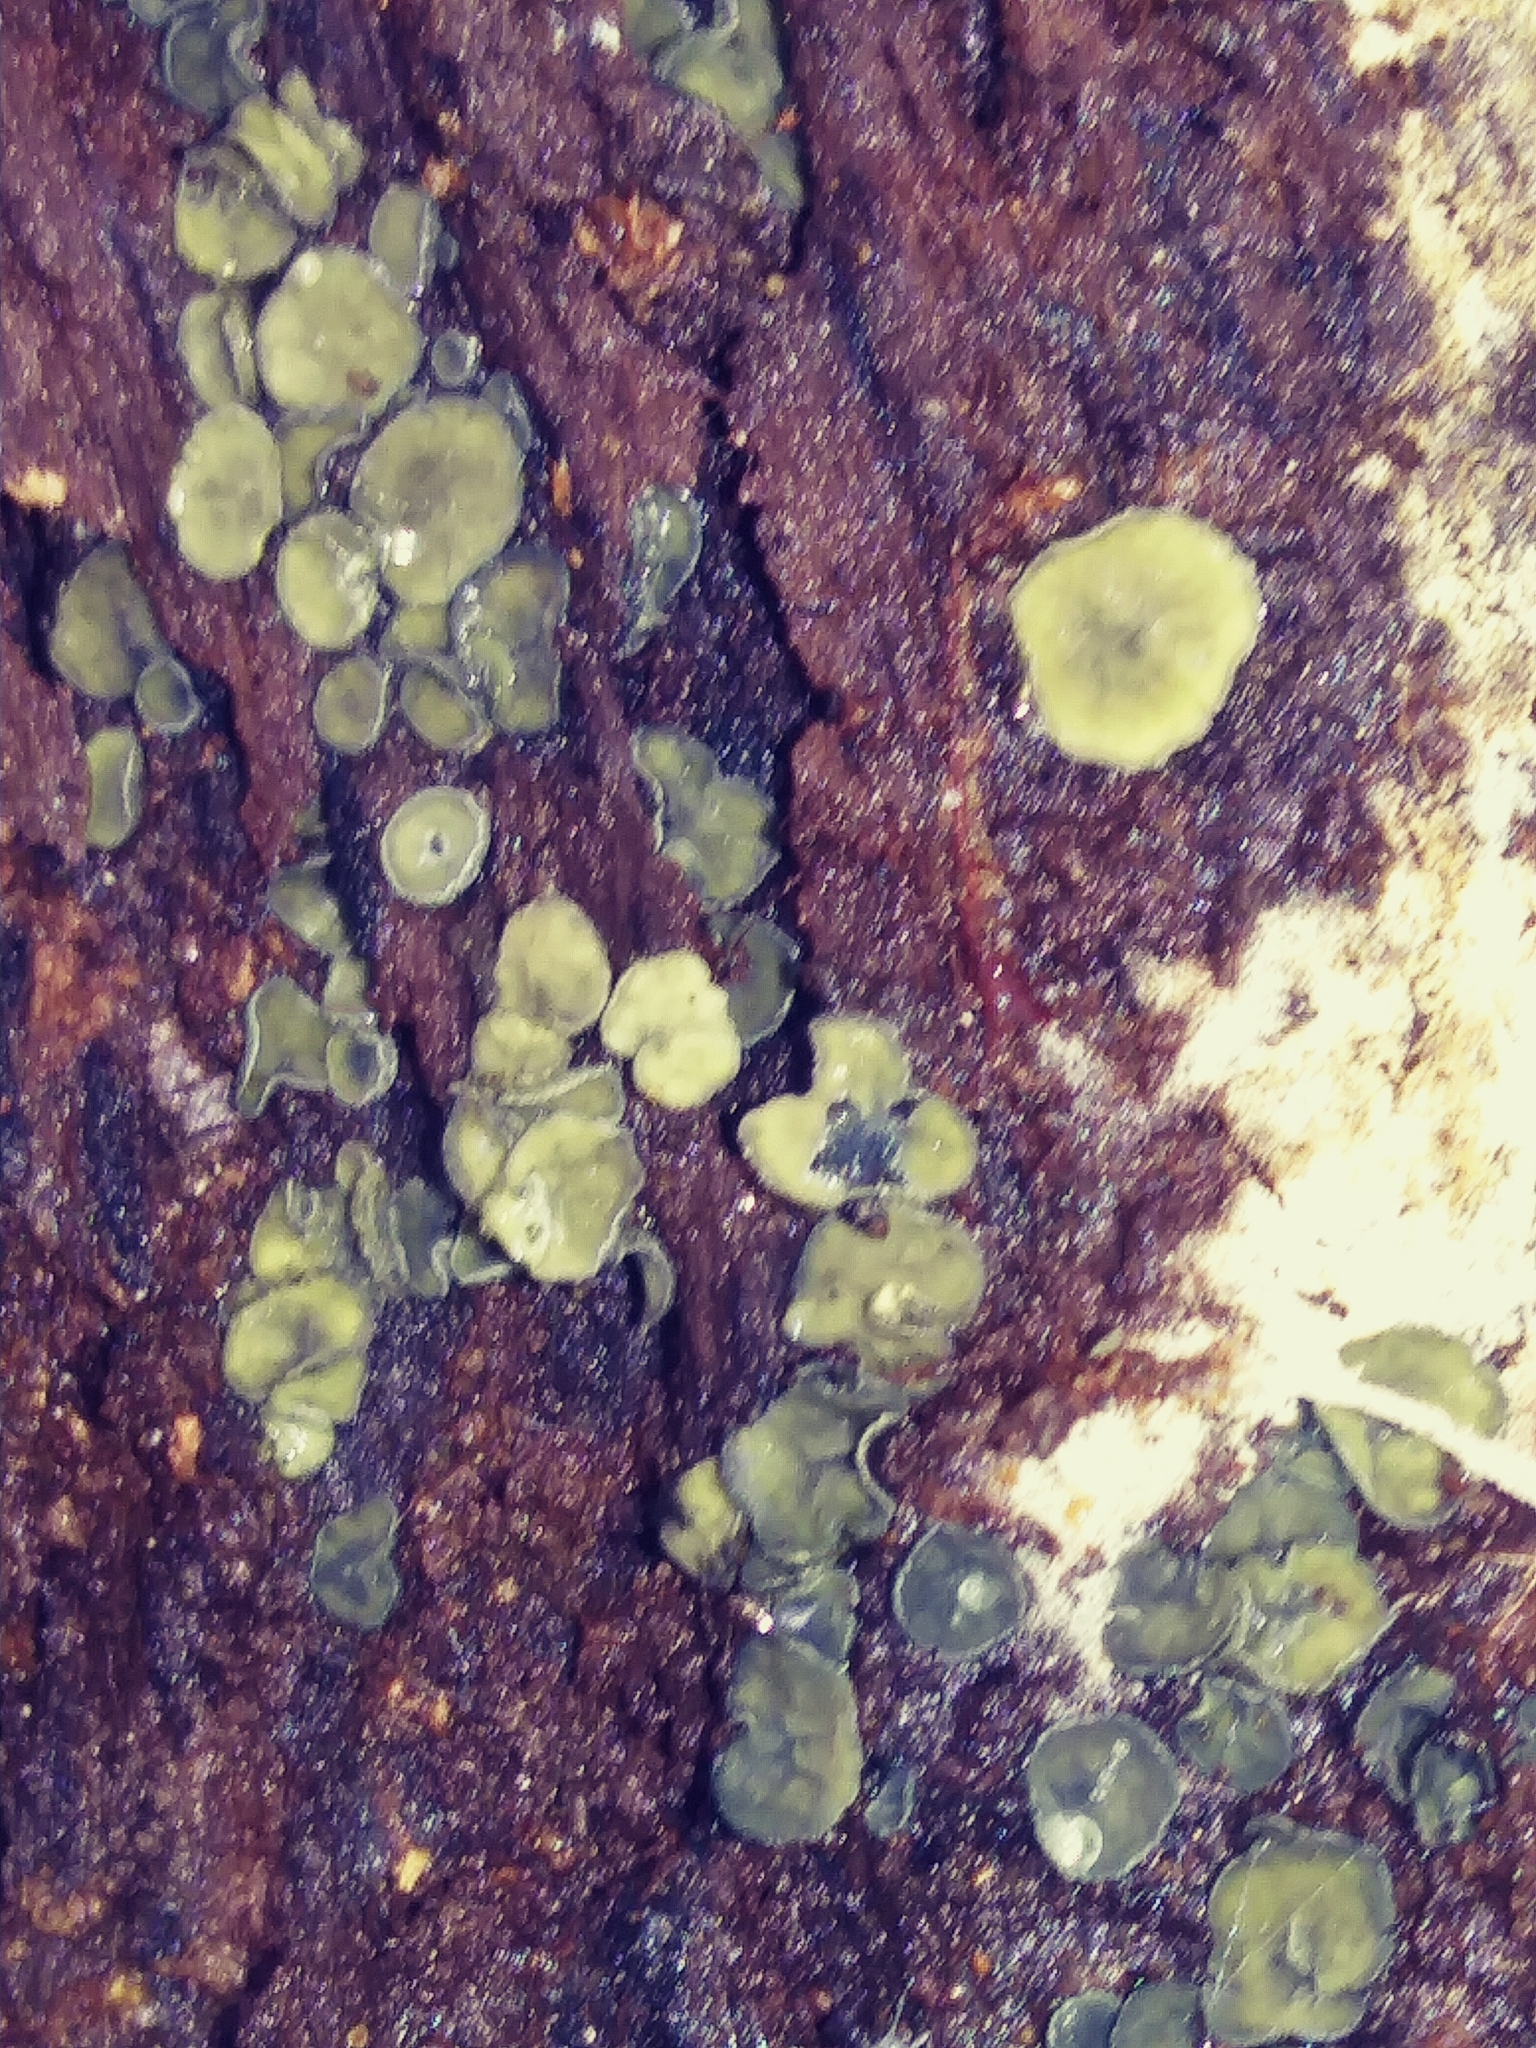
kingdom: Fungi
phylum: Ascomycota
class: Leotiomycetes
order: Helotiales
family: Chlorospleniaceae
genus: Chlorosplenium
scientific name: Chlorosplenium chlora
